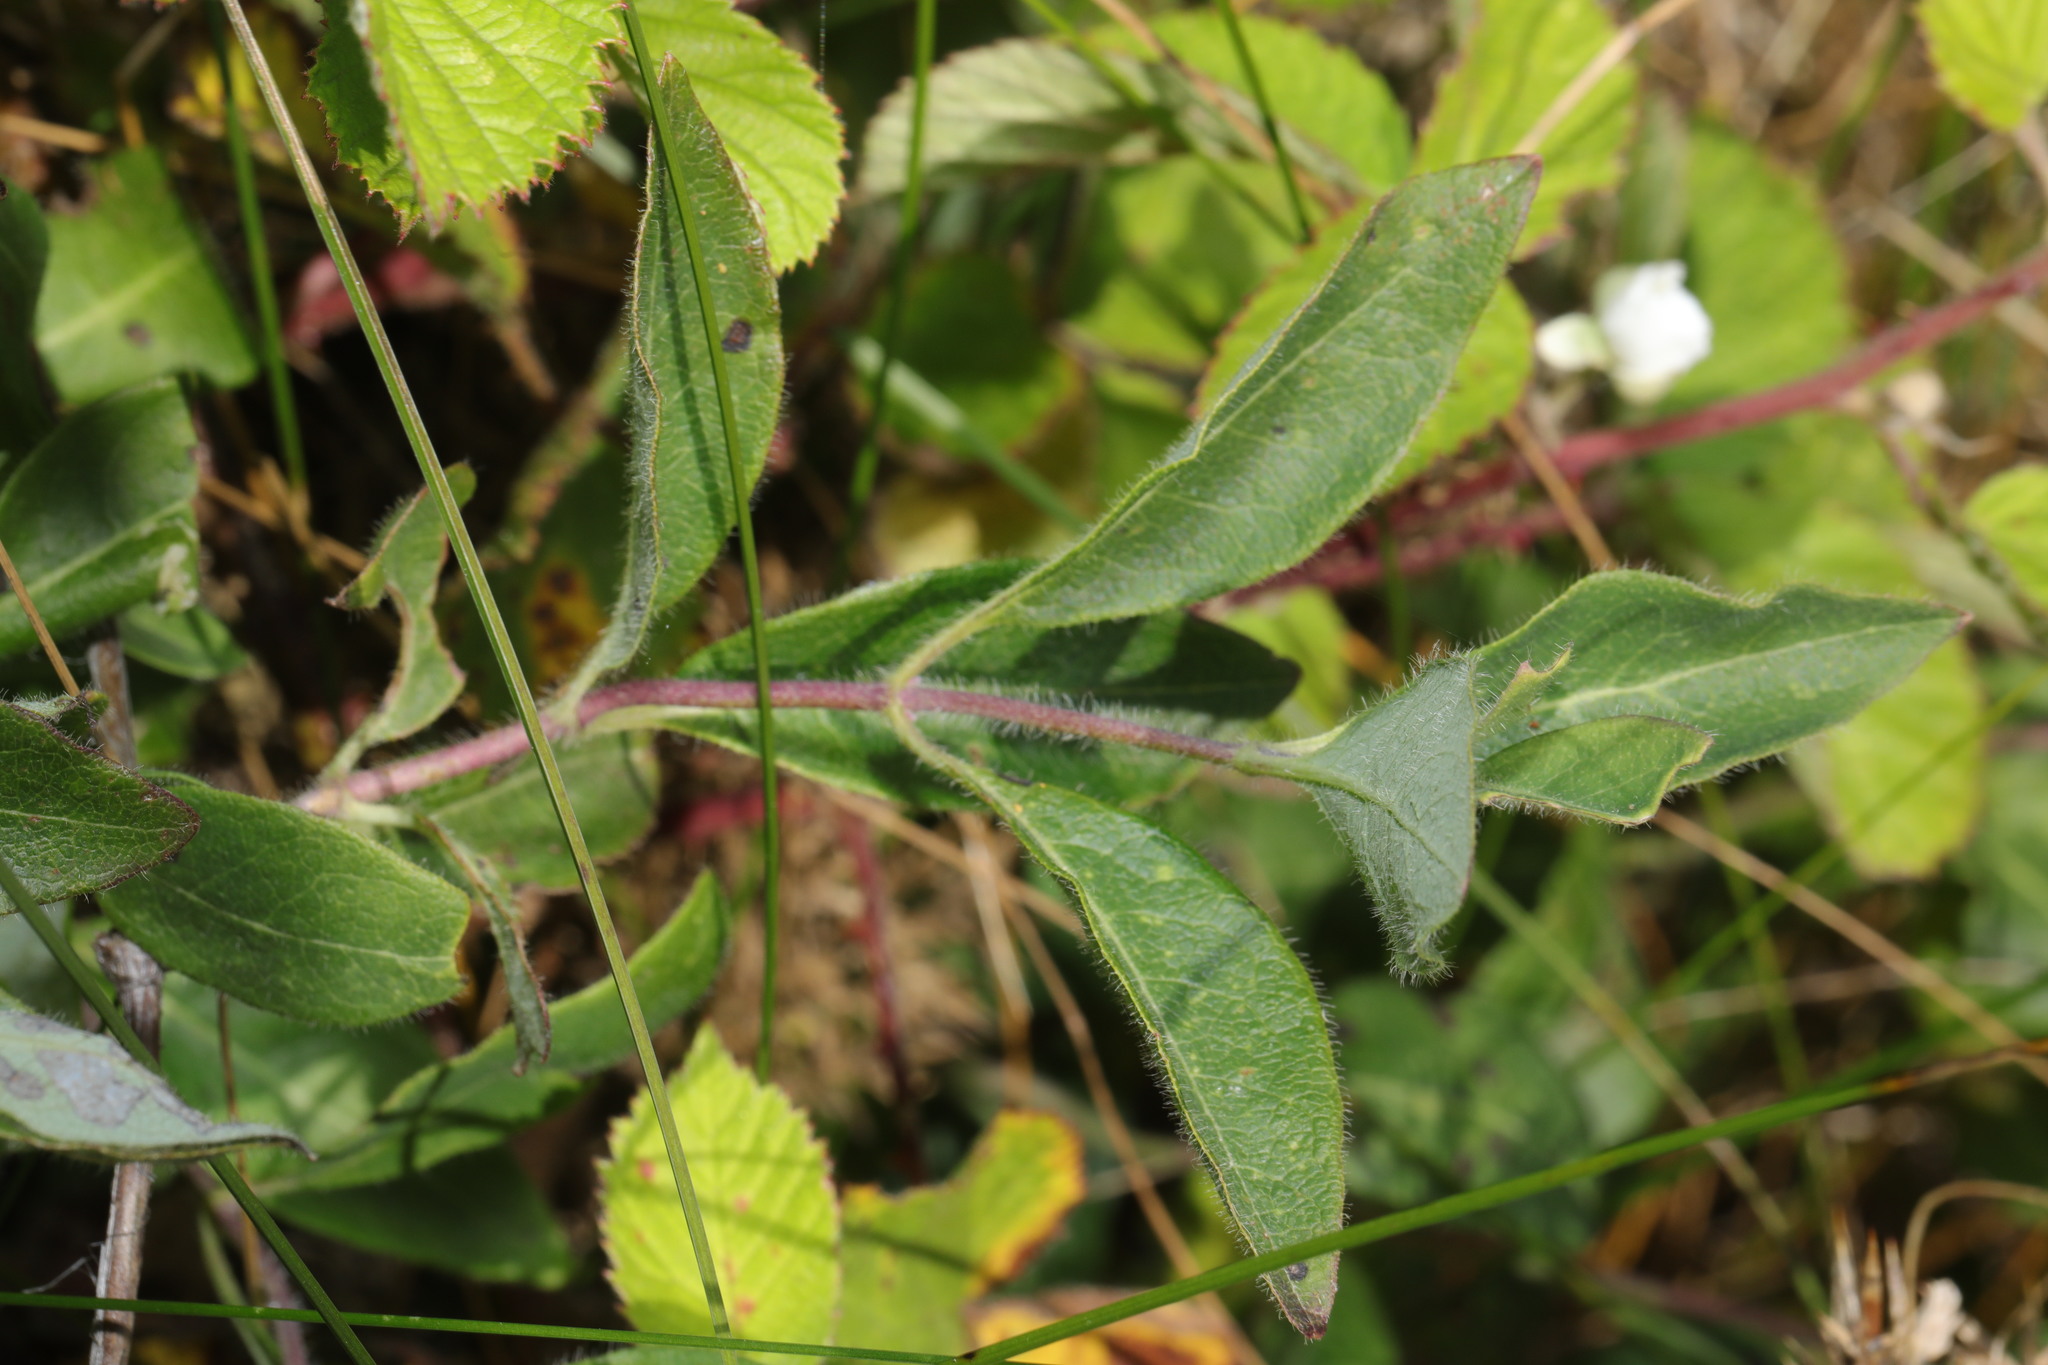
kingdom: Plantae
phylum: Tracheophyta
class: Magnoliopsida
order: Dipsacales
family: Caprifoliaceae
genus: Lonicera
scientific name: Lonicera periclymenum
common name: European honeysuckle
